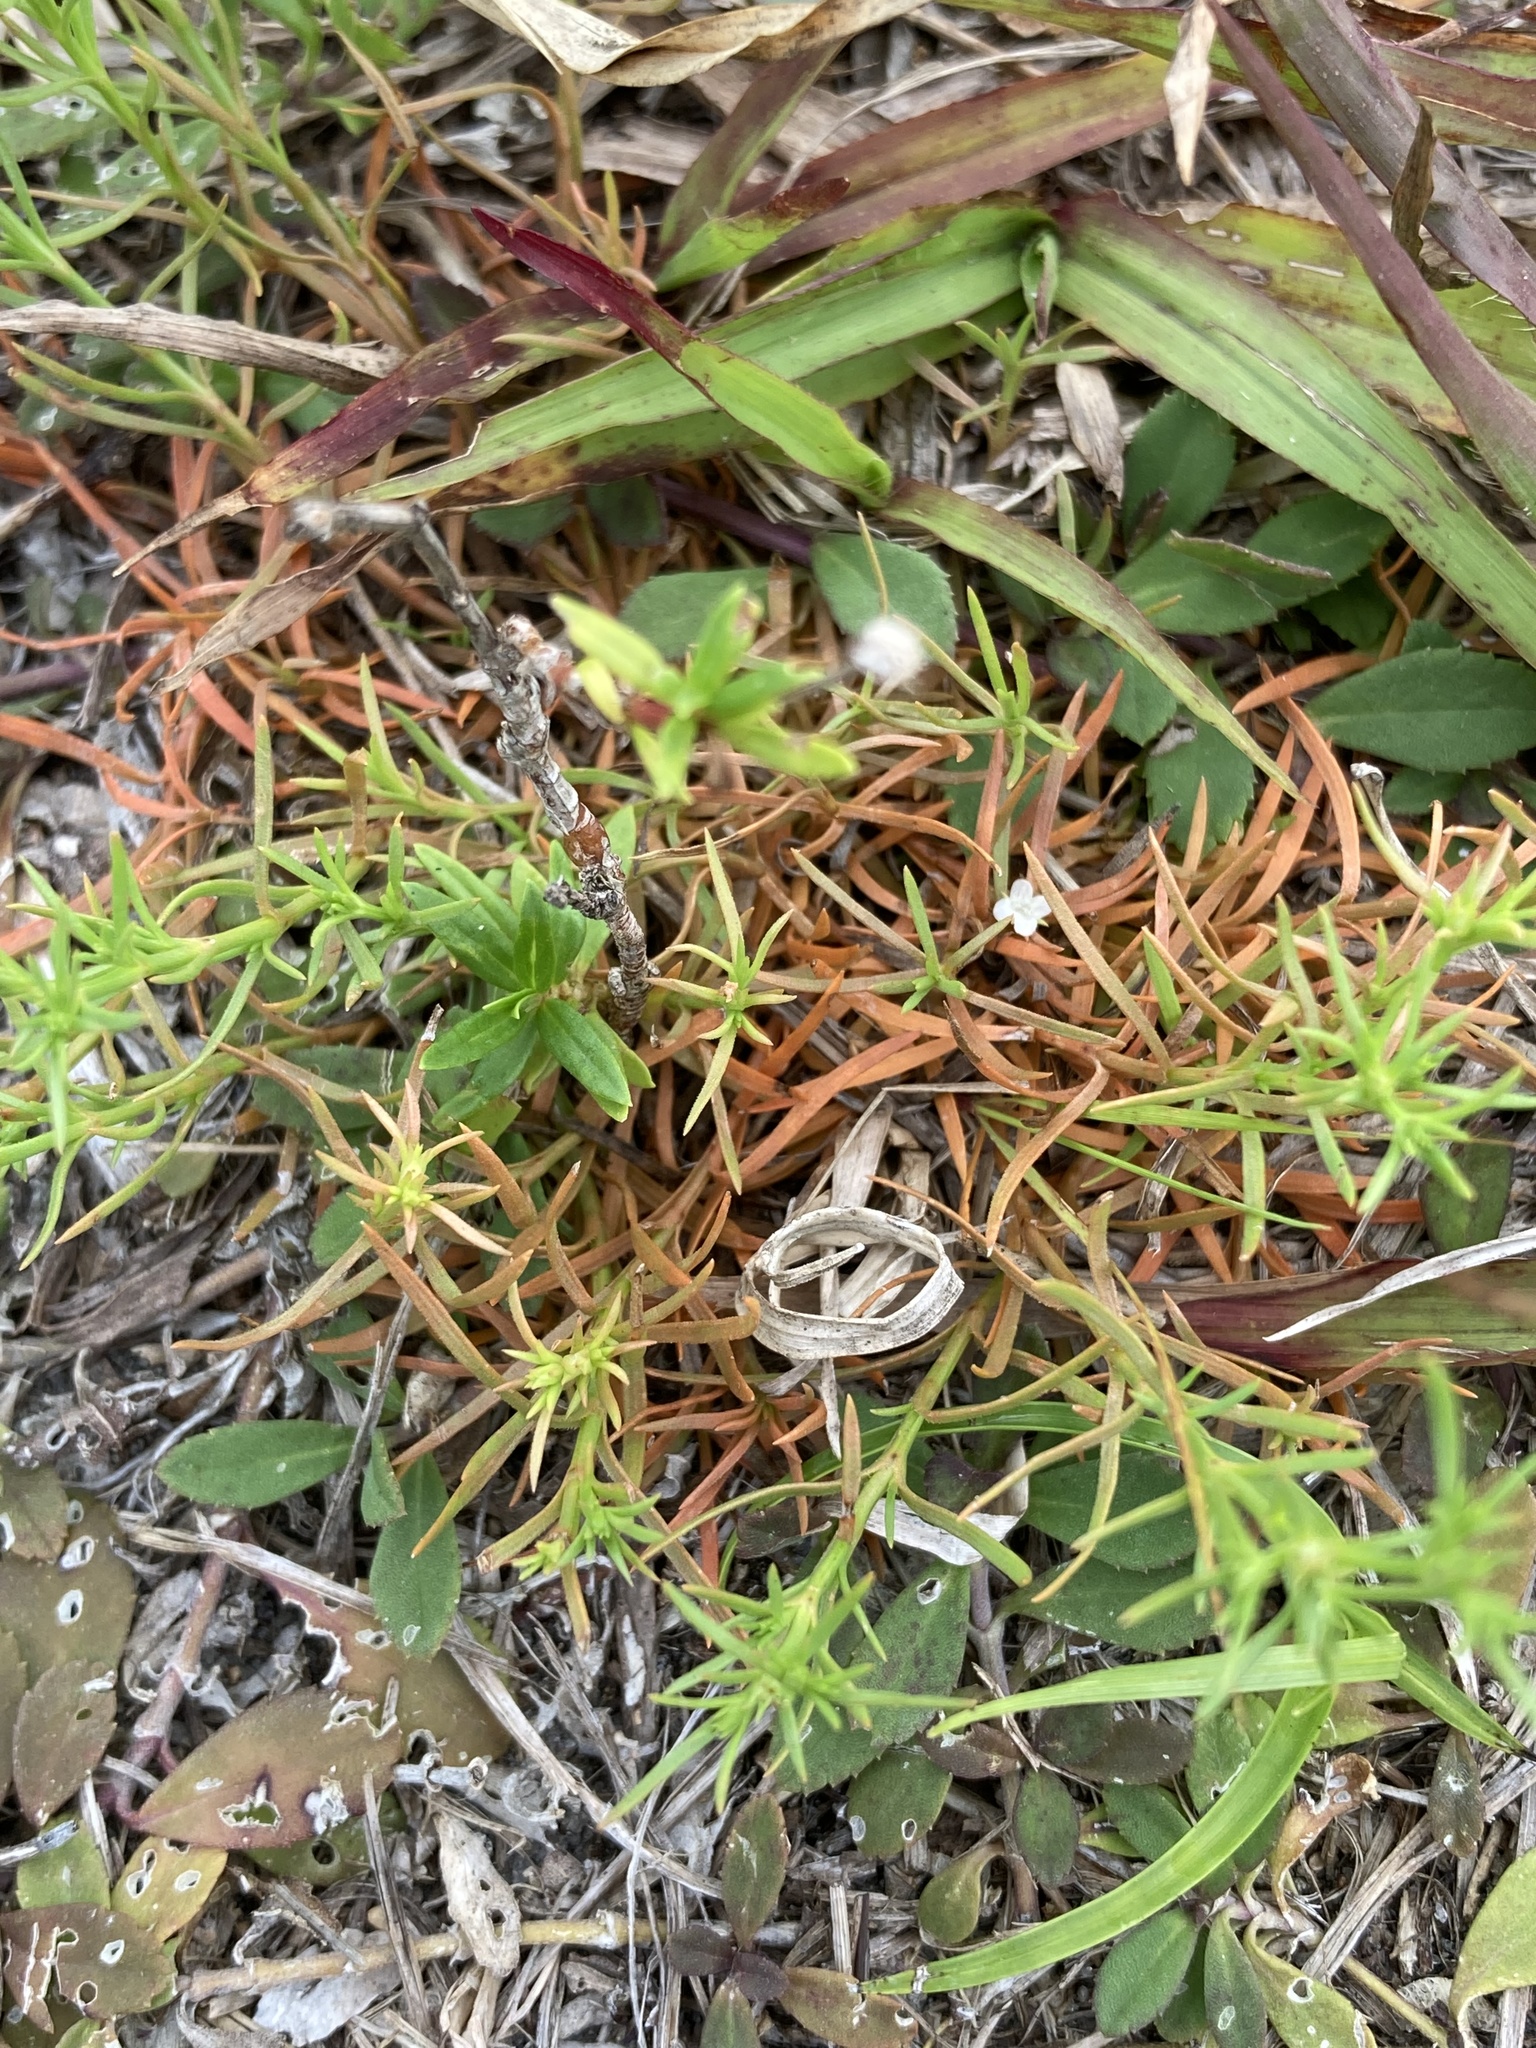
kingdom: Plantae
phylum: Tracheophyta
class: Magnoliopsida
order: Lamiales
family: Tetrachondraceae
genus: Polypremum
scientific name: Polypremum procumbens
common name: Juniper-leaf
